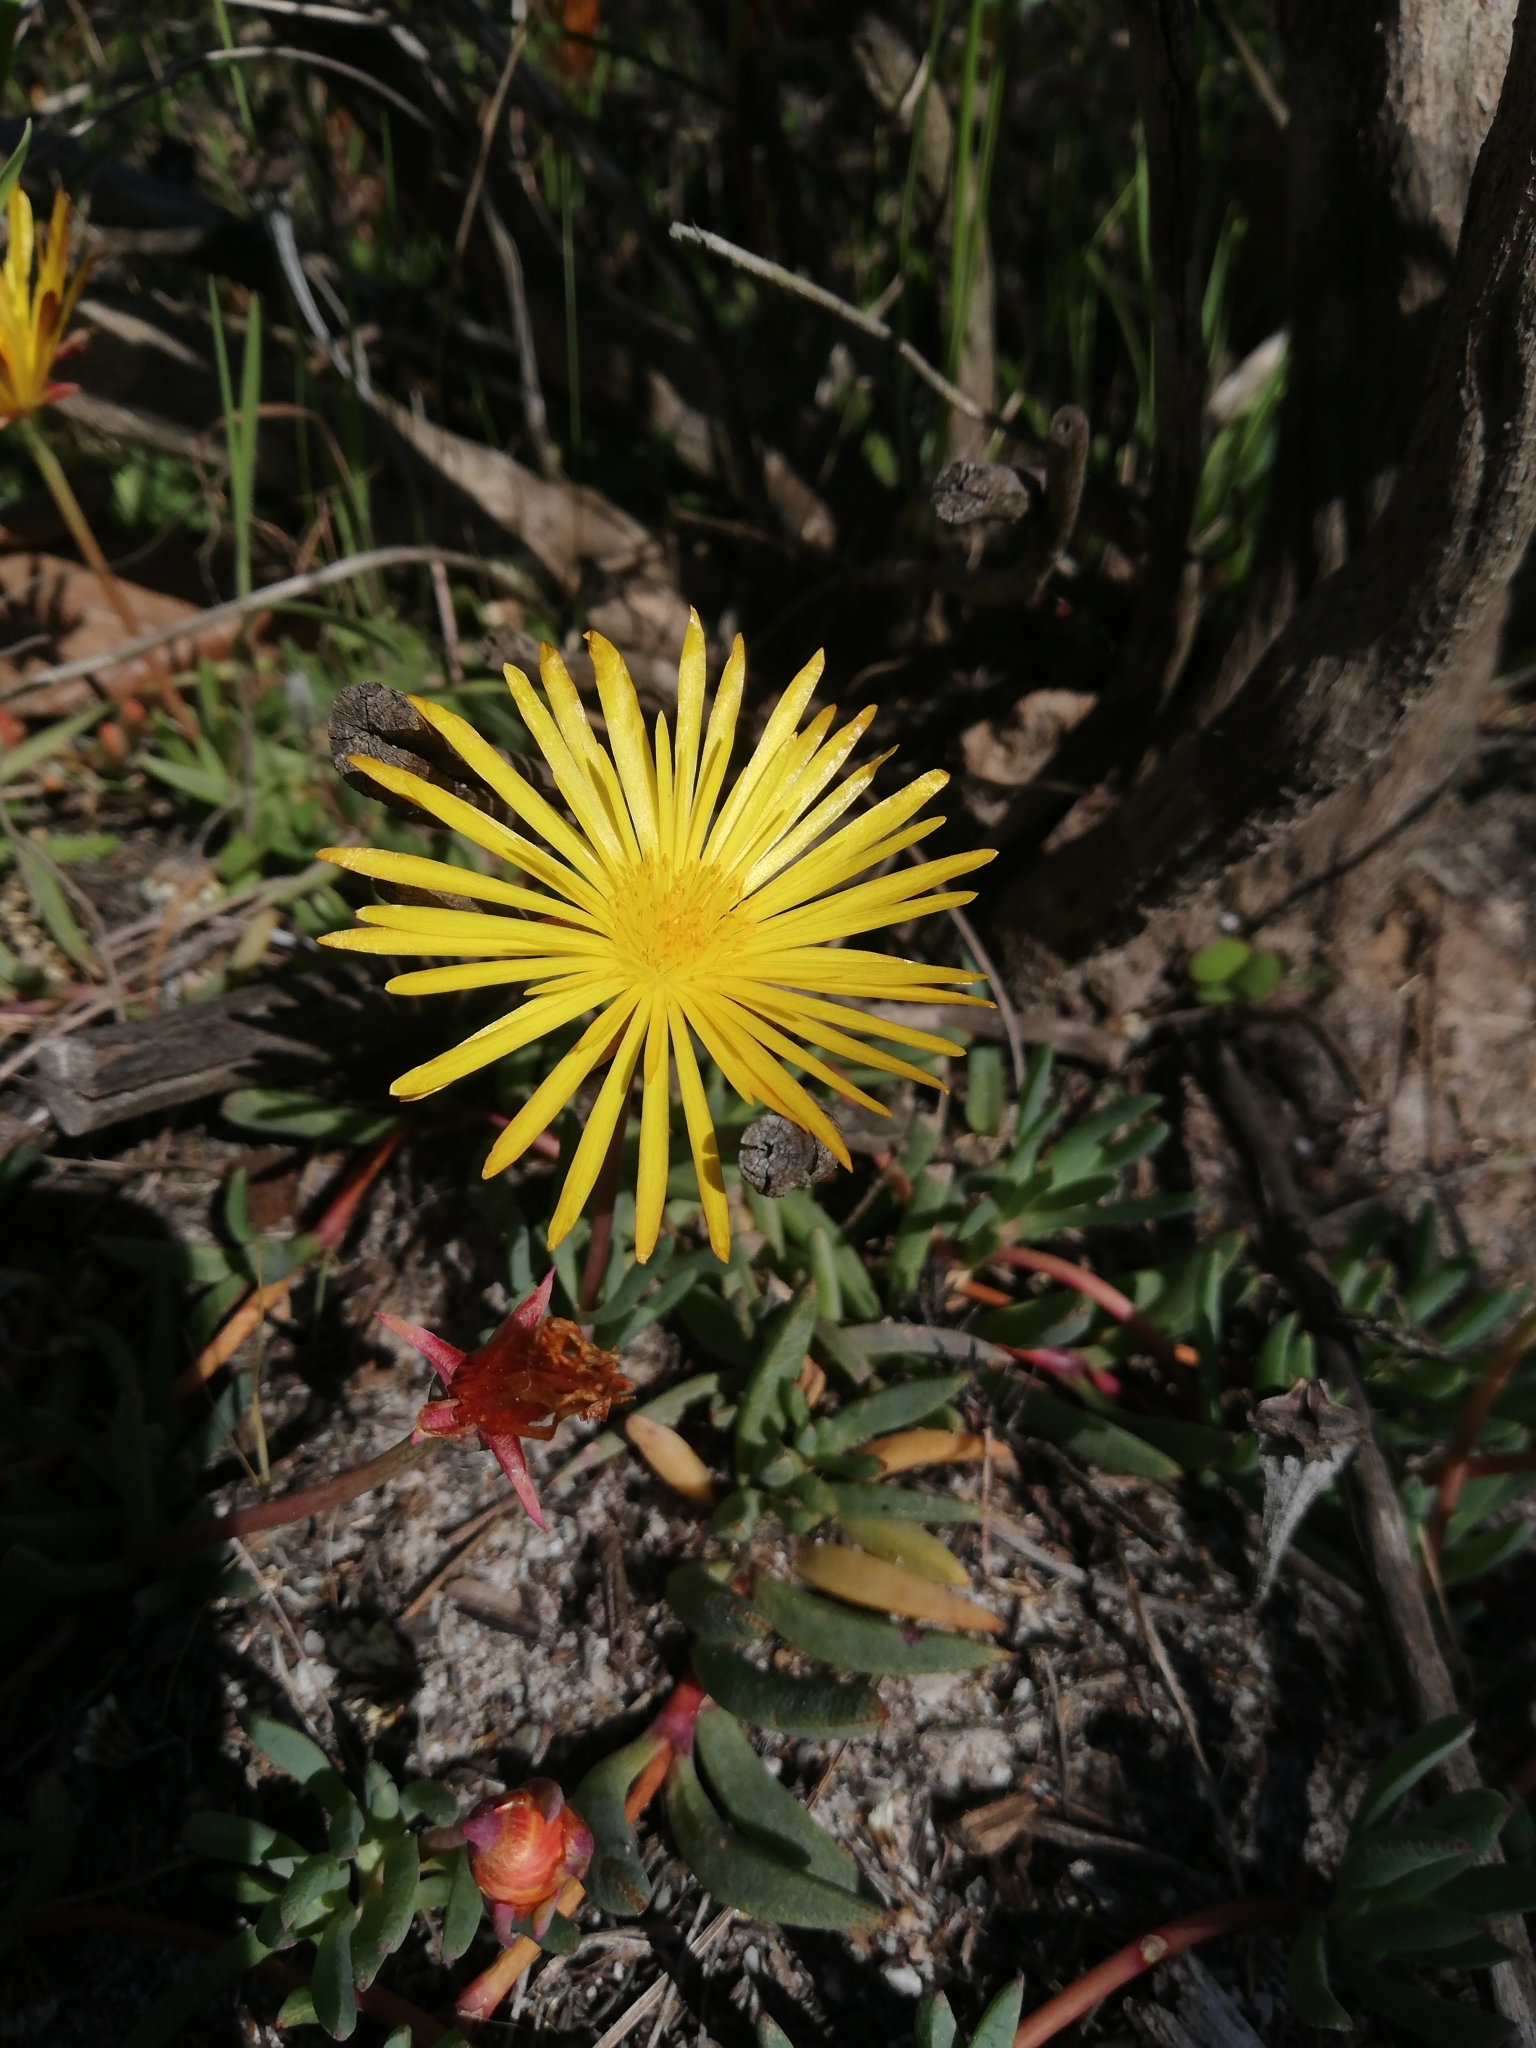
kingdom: Plantae
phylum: Tracheophyta
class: Magnoliopsida
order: Caryophyllales
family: Aizoaceae
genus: Lampranthus
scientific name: Lampranthus reptans
